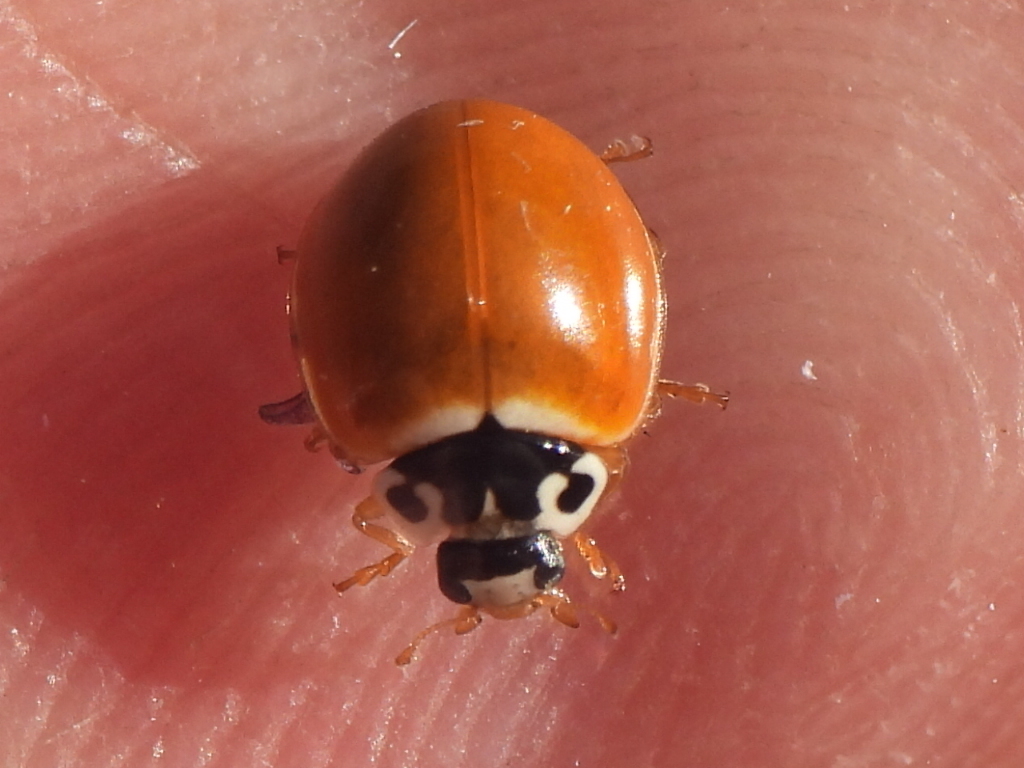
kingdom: Animalia
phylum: Arthropoda
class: Insecta
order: Coleoptera
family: Coccinellidae
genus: Cycloneda
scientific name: Cycloneda munda
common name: Polished lady beetle
